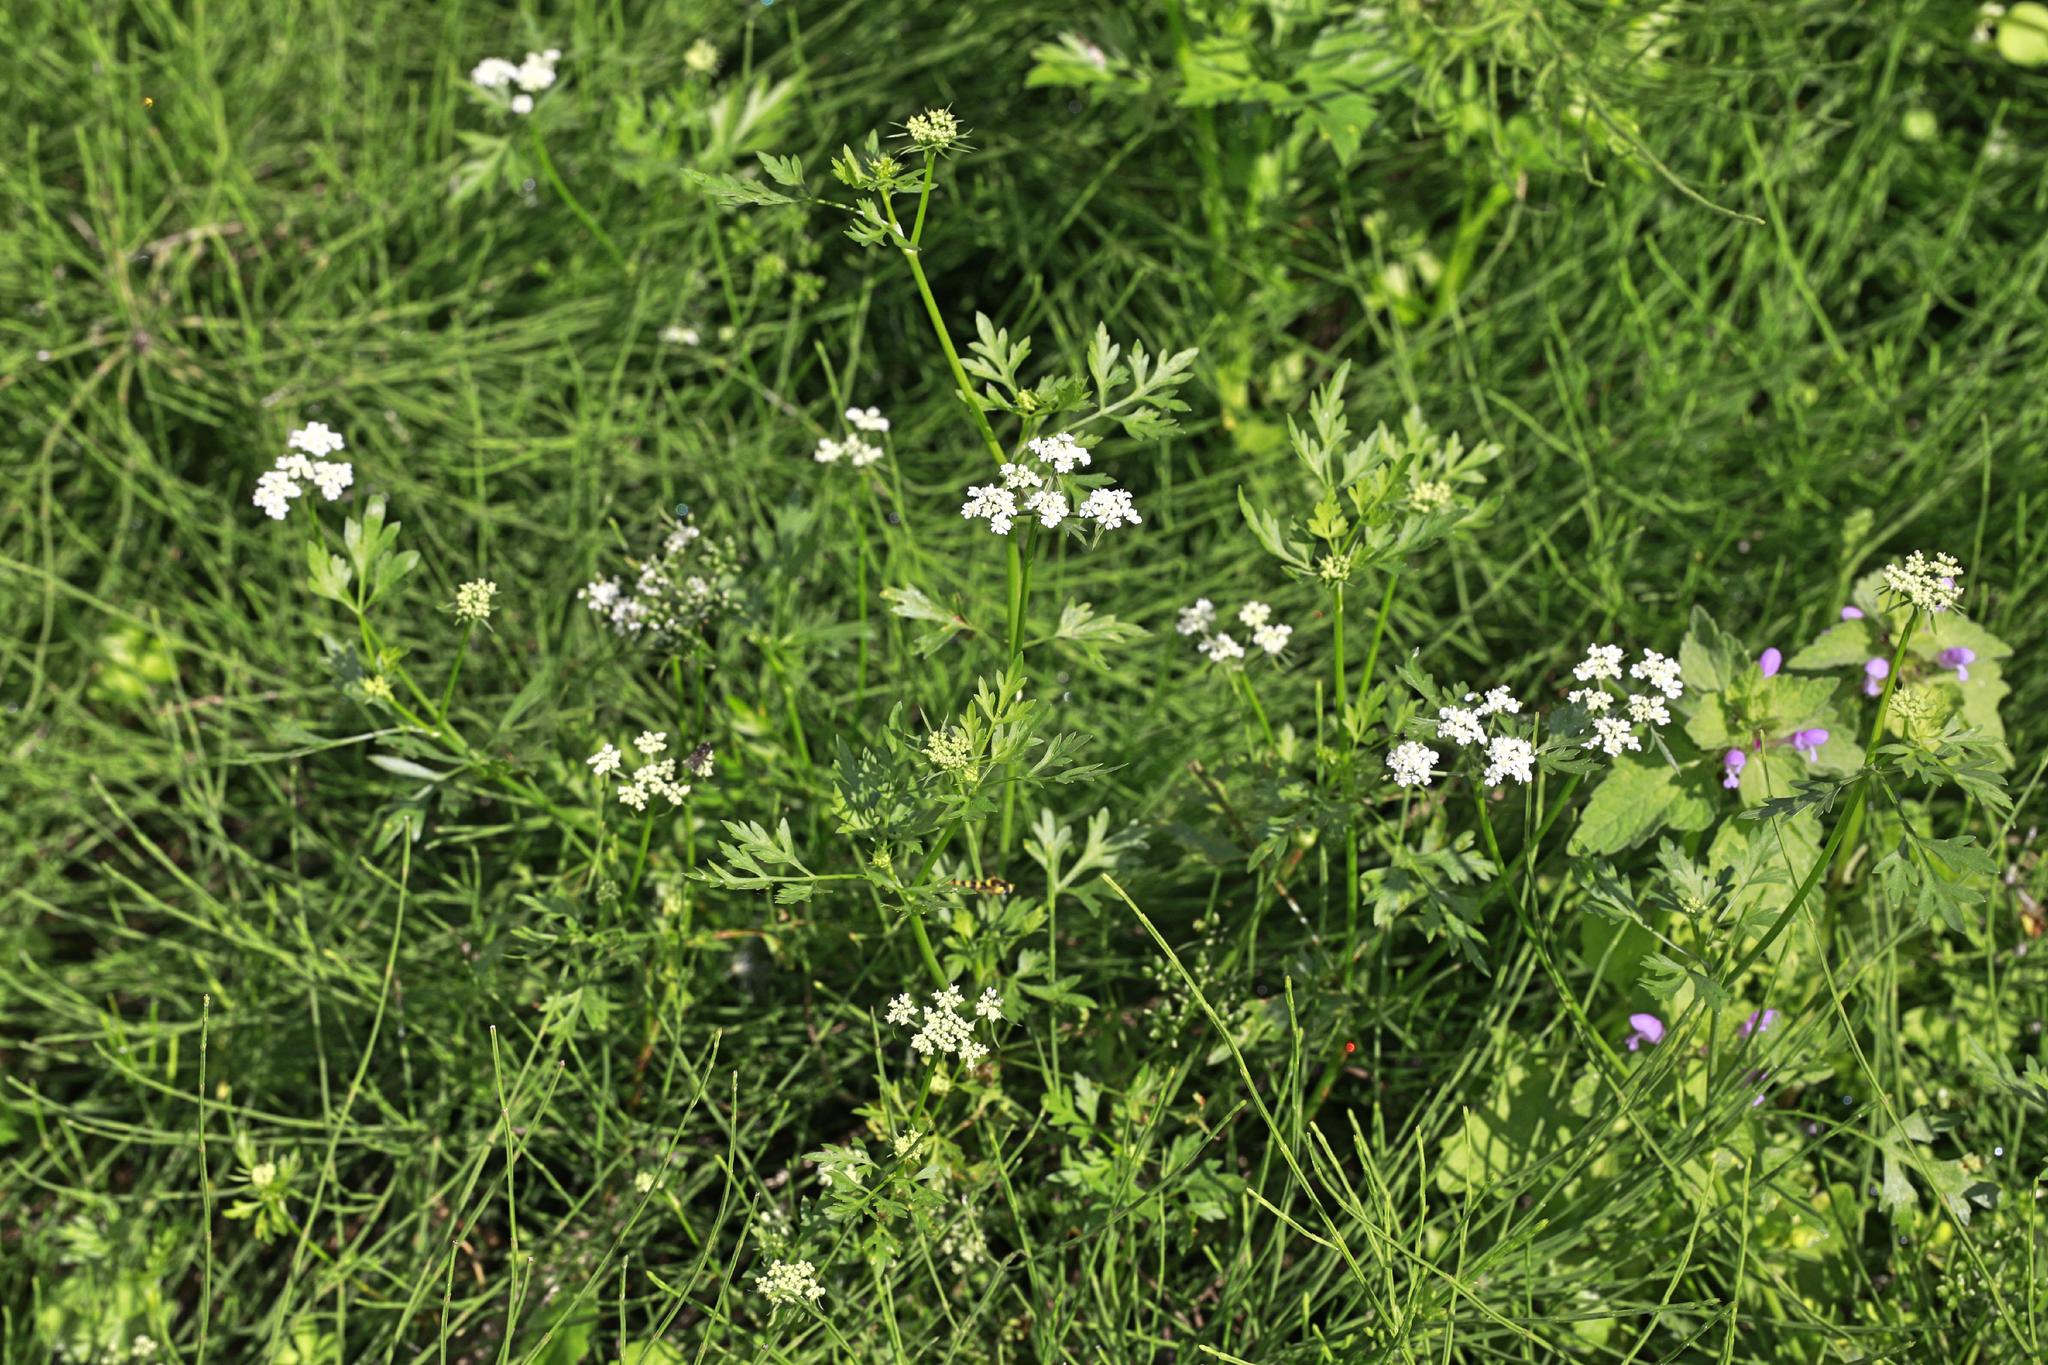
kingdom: Plantae
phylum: Tracheophyta
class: Magnoliopsida
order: Apiales
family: Apiaceae
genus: Torilis
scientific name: Torilis japonica
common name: Upright hedge-parsley
